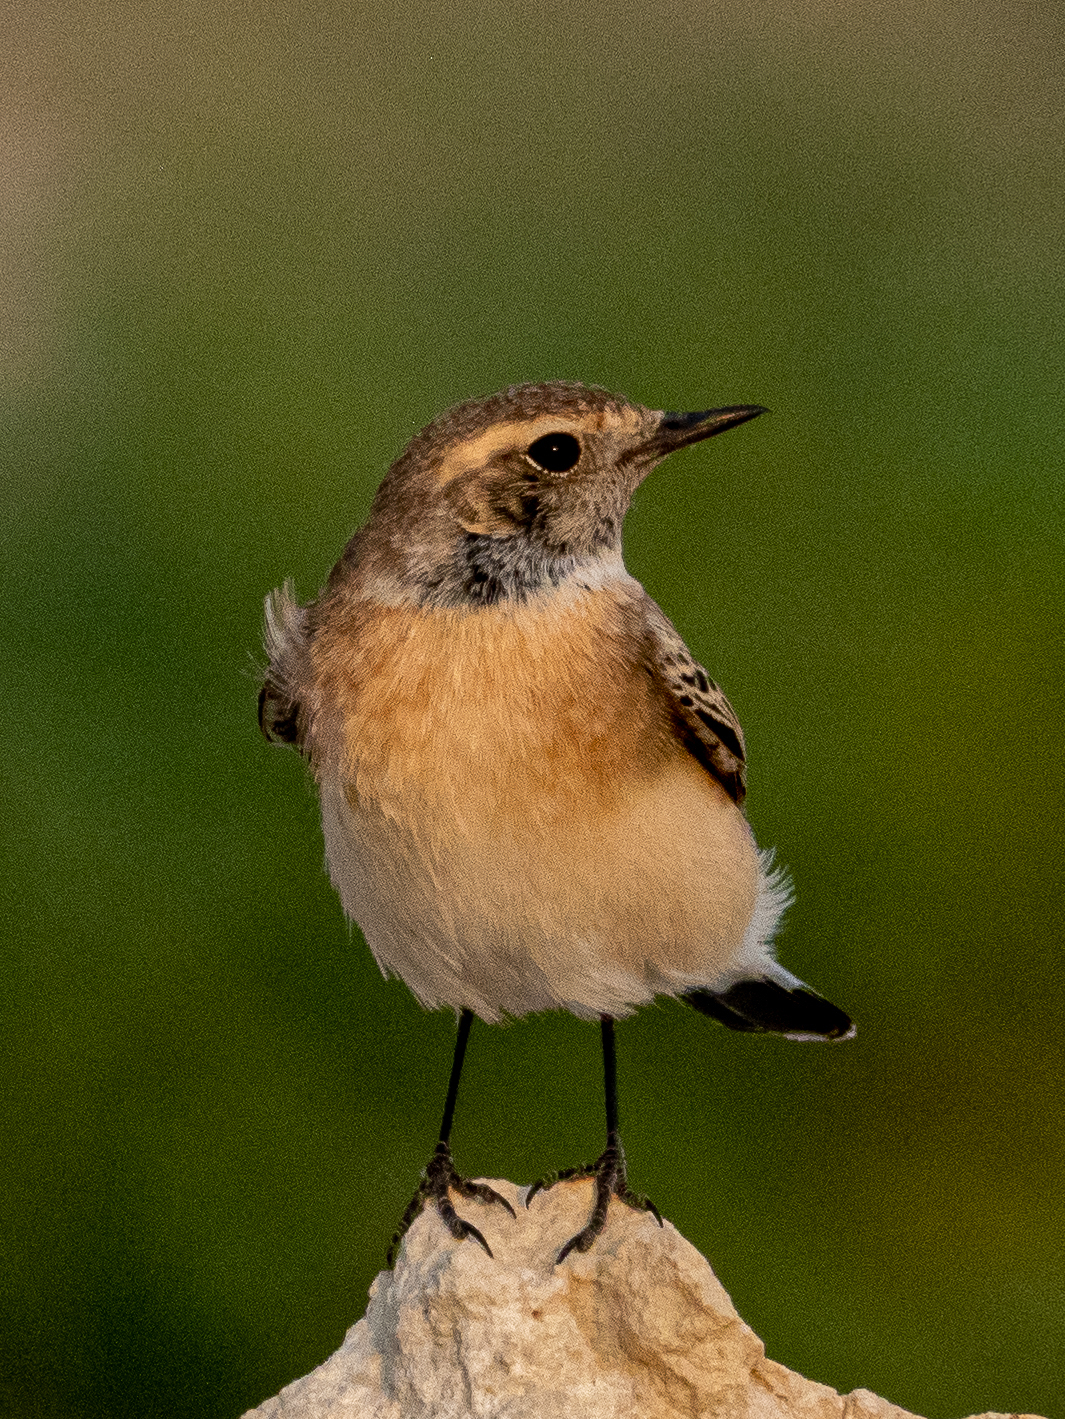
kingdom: Animalia
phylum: Chordata
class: Aves
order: Passeriformes
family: Muscicapidae
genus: Oenanthe
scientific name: Oenanthe deserti
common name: Desert wheatear
